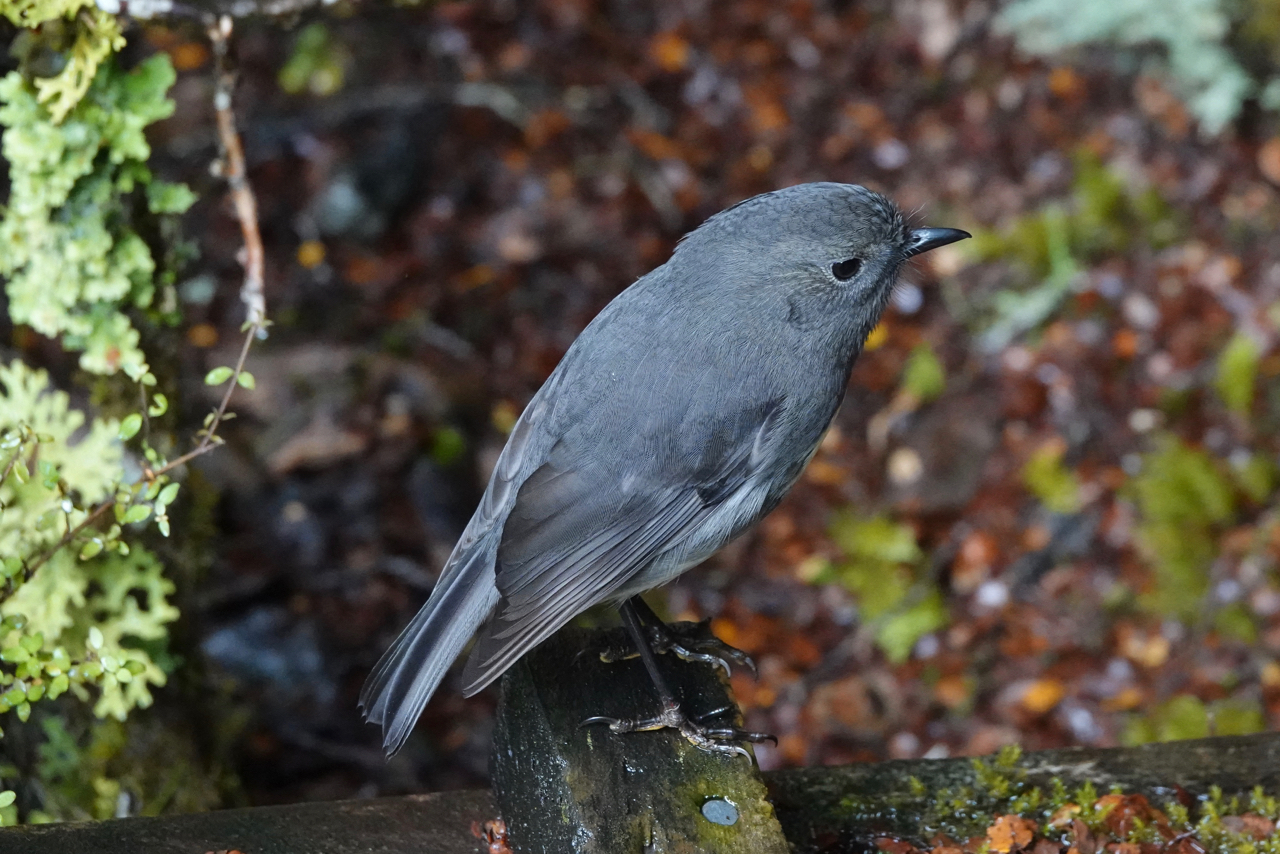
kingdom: Animalia
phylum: Chordata
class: Aves
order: Passeriformes
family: Petroicidae
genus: Petroica
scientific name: Petroica australis
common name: New zealand robin
